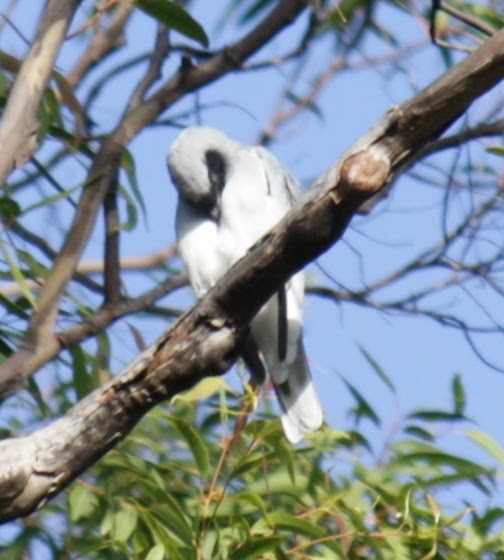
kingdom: Animalia
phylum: Chordata
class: Aves
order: Passeriformes
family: Campephagidae
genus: Coracina
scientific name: Coracina novaehollandiae
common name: Black-faced cuckooshrike
